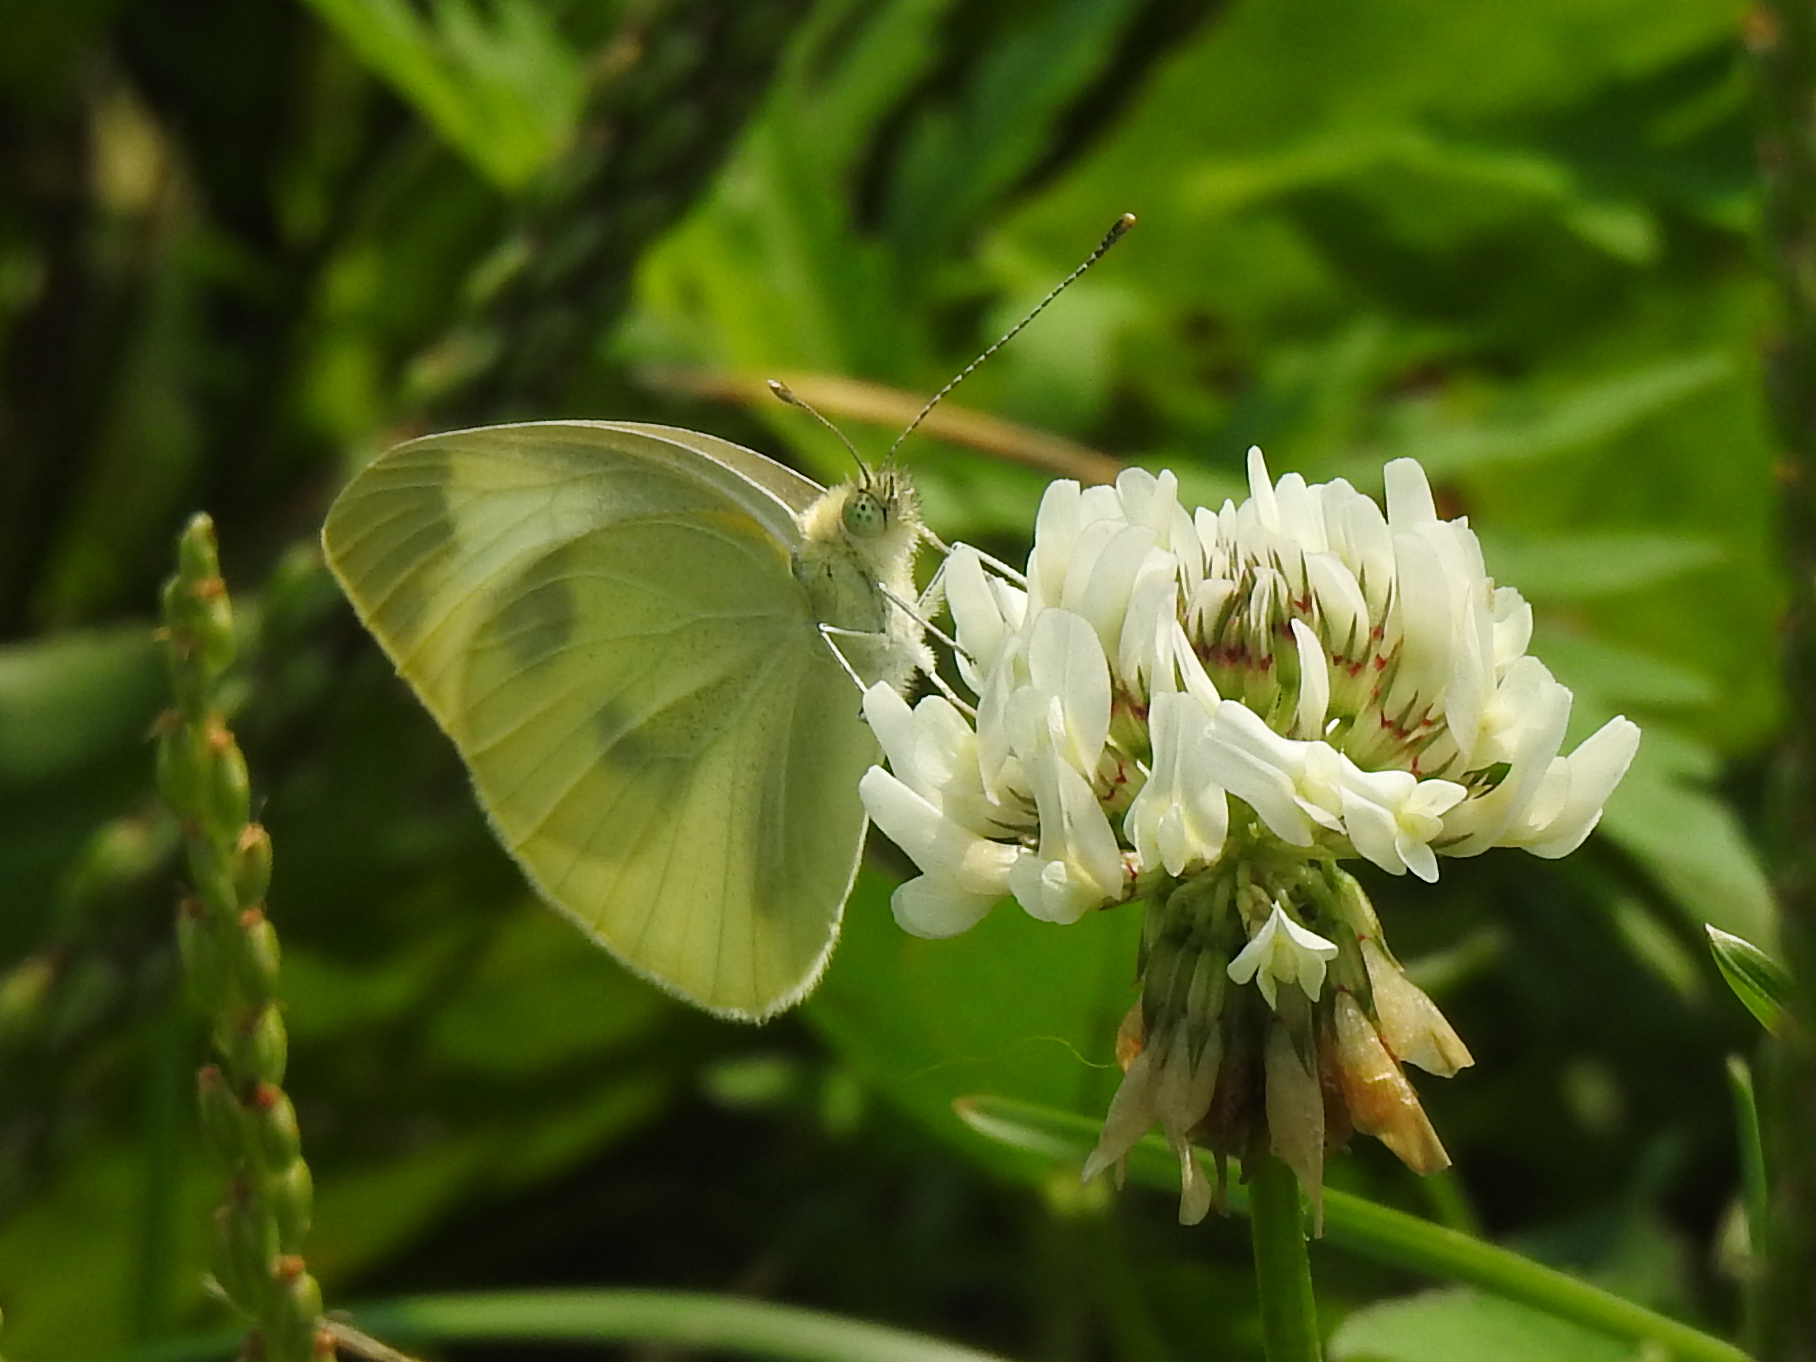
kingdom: Animalia
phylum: Arthropoda
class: Insecta
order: Lepidoptera
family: Pieridae
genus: Pieris
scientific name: Pieris rapae
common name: Small white
